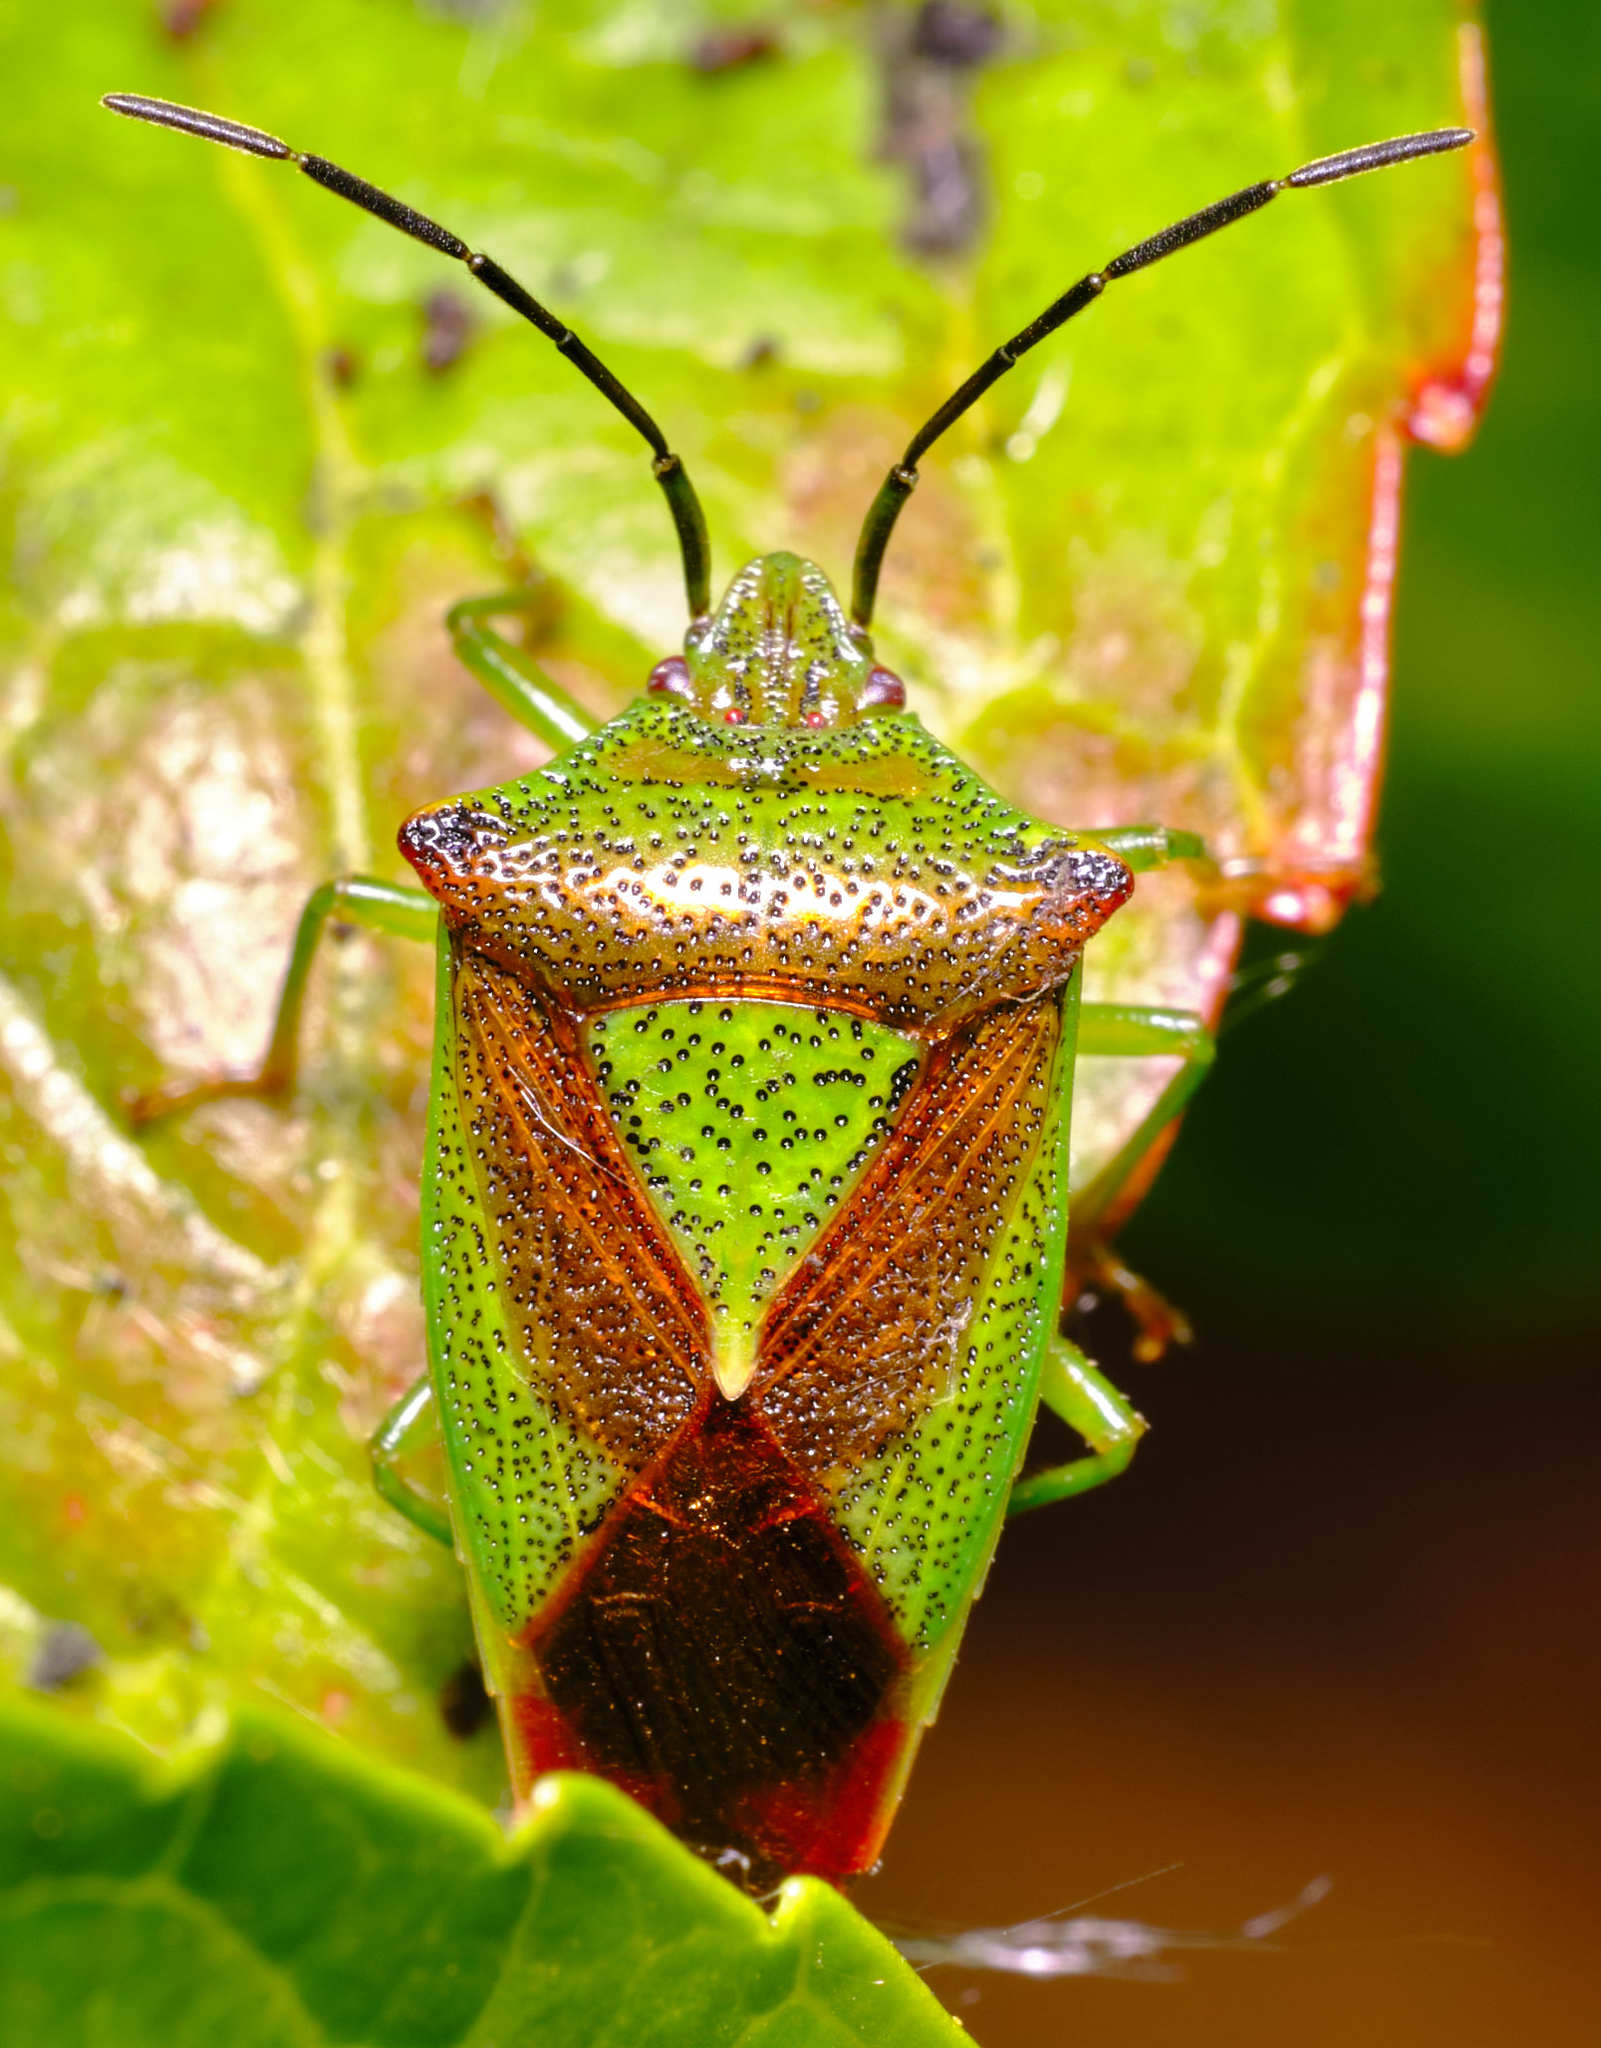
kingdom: Animalia
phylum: Arthropoda
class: Insecta
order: Hemiptera
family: Acanthosomatidae
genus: Acanthosoma
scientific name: Acanthosoma haemorrhoidale
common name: Hawthorn shieldbug
